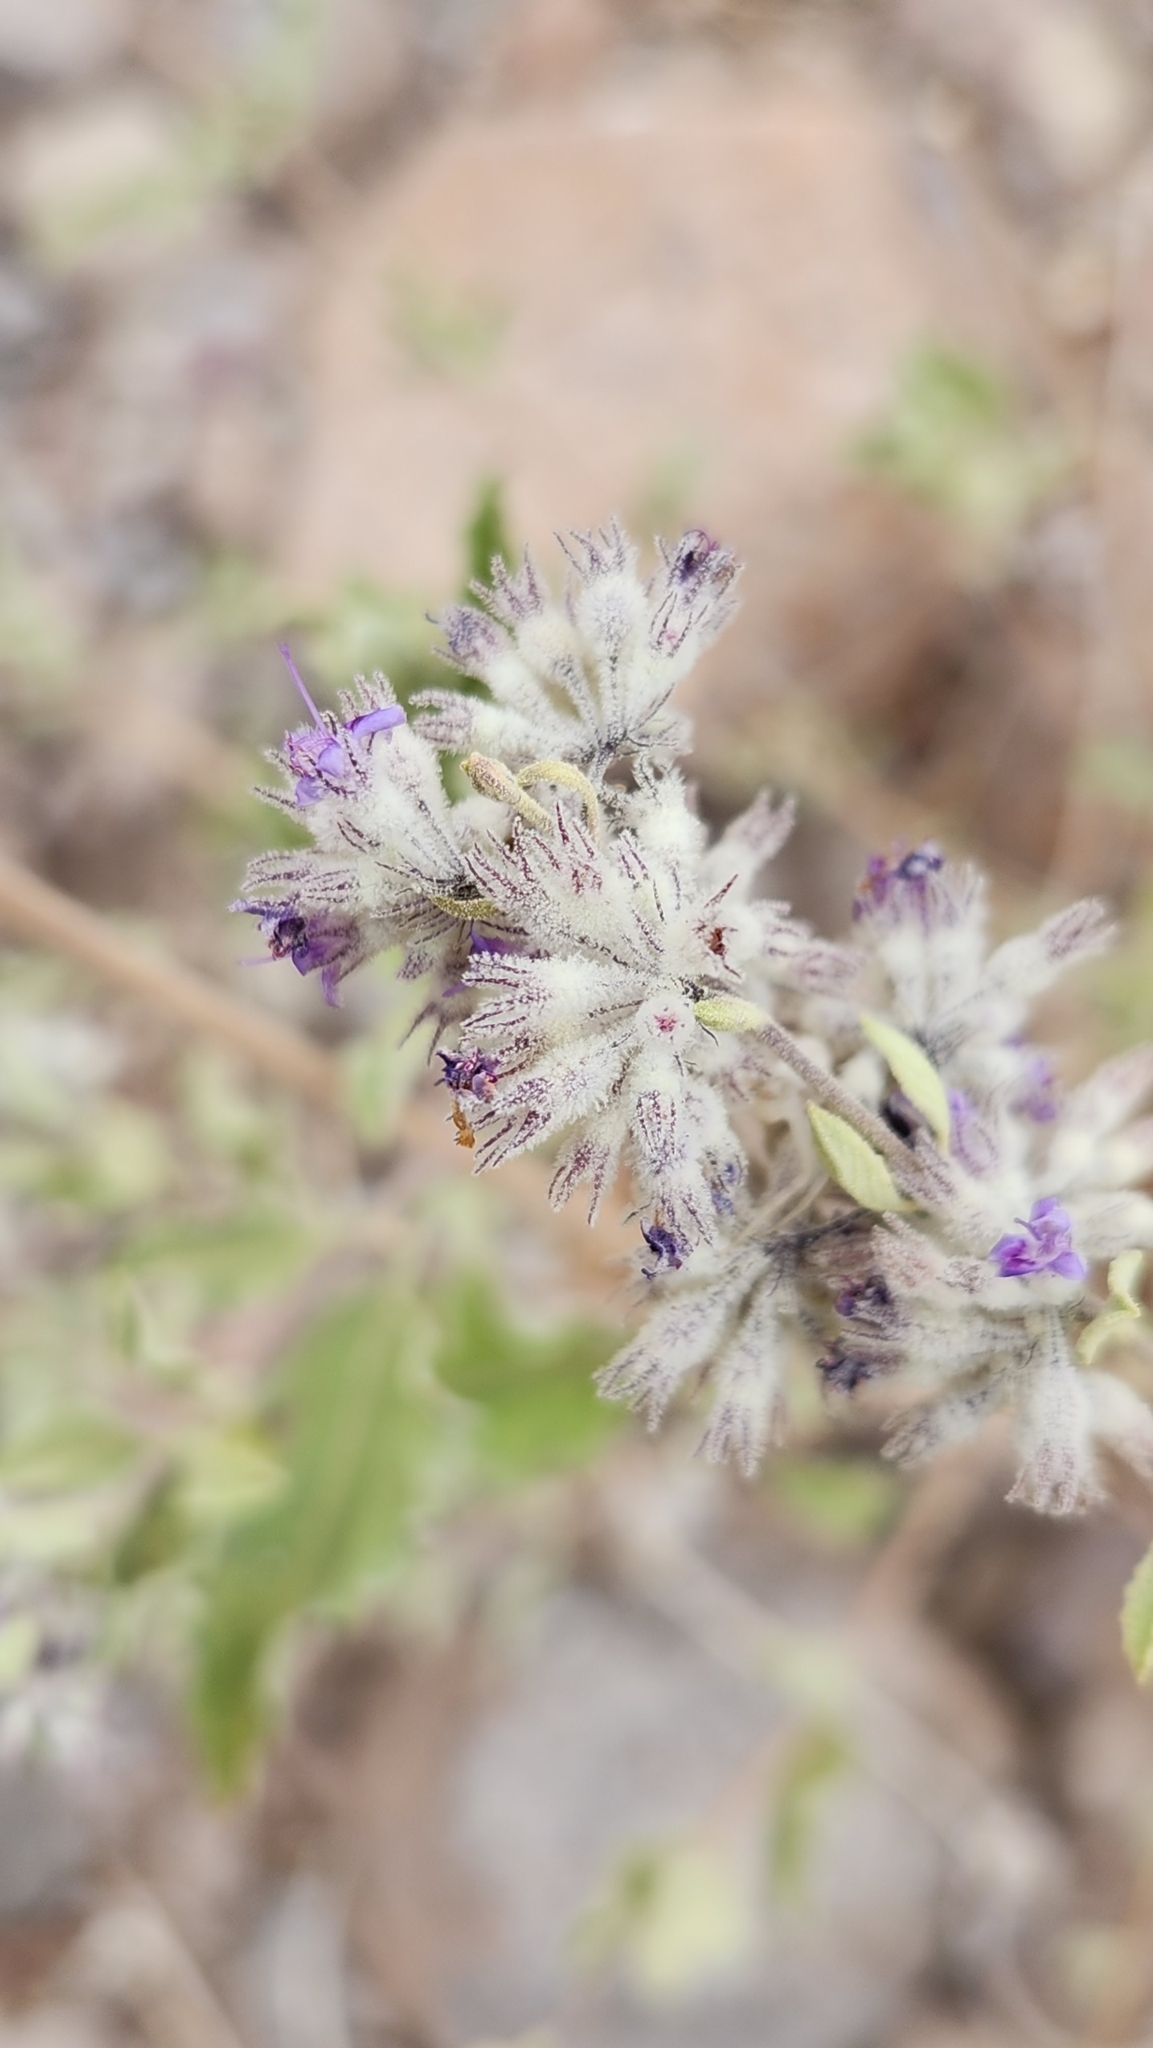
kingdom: Plantae
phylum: Tracheophyta
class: Magnoliopsida
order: Lamiales
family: Lamiaceae
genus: Condea
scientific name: Condea emoryi
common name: Chia
